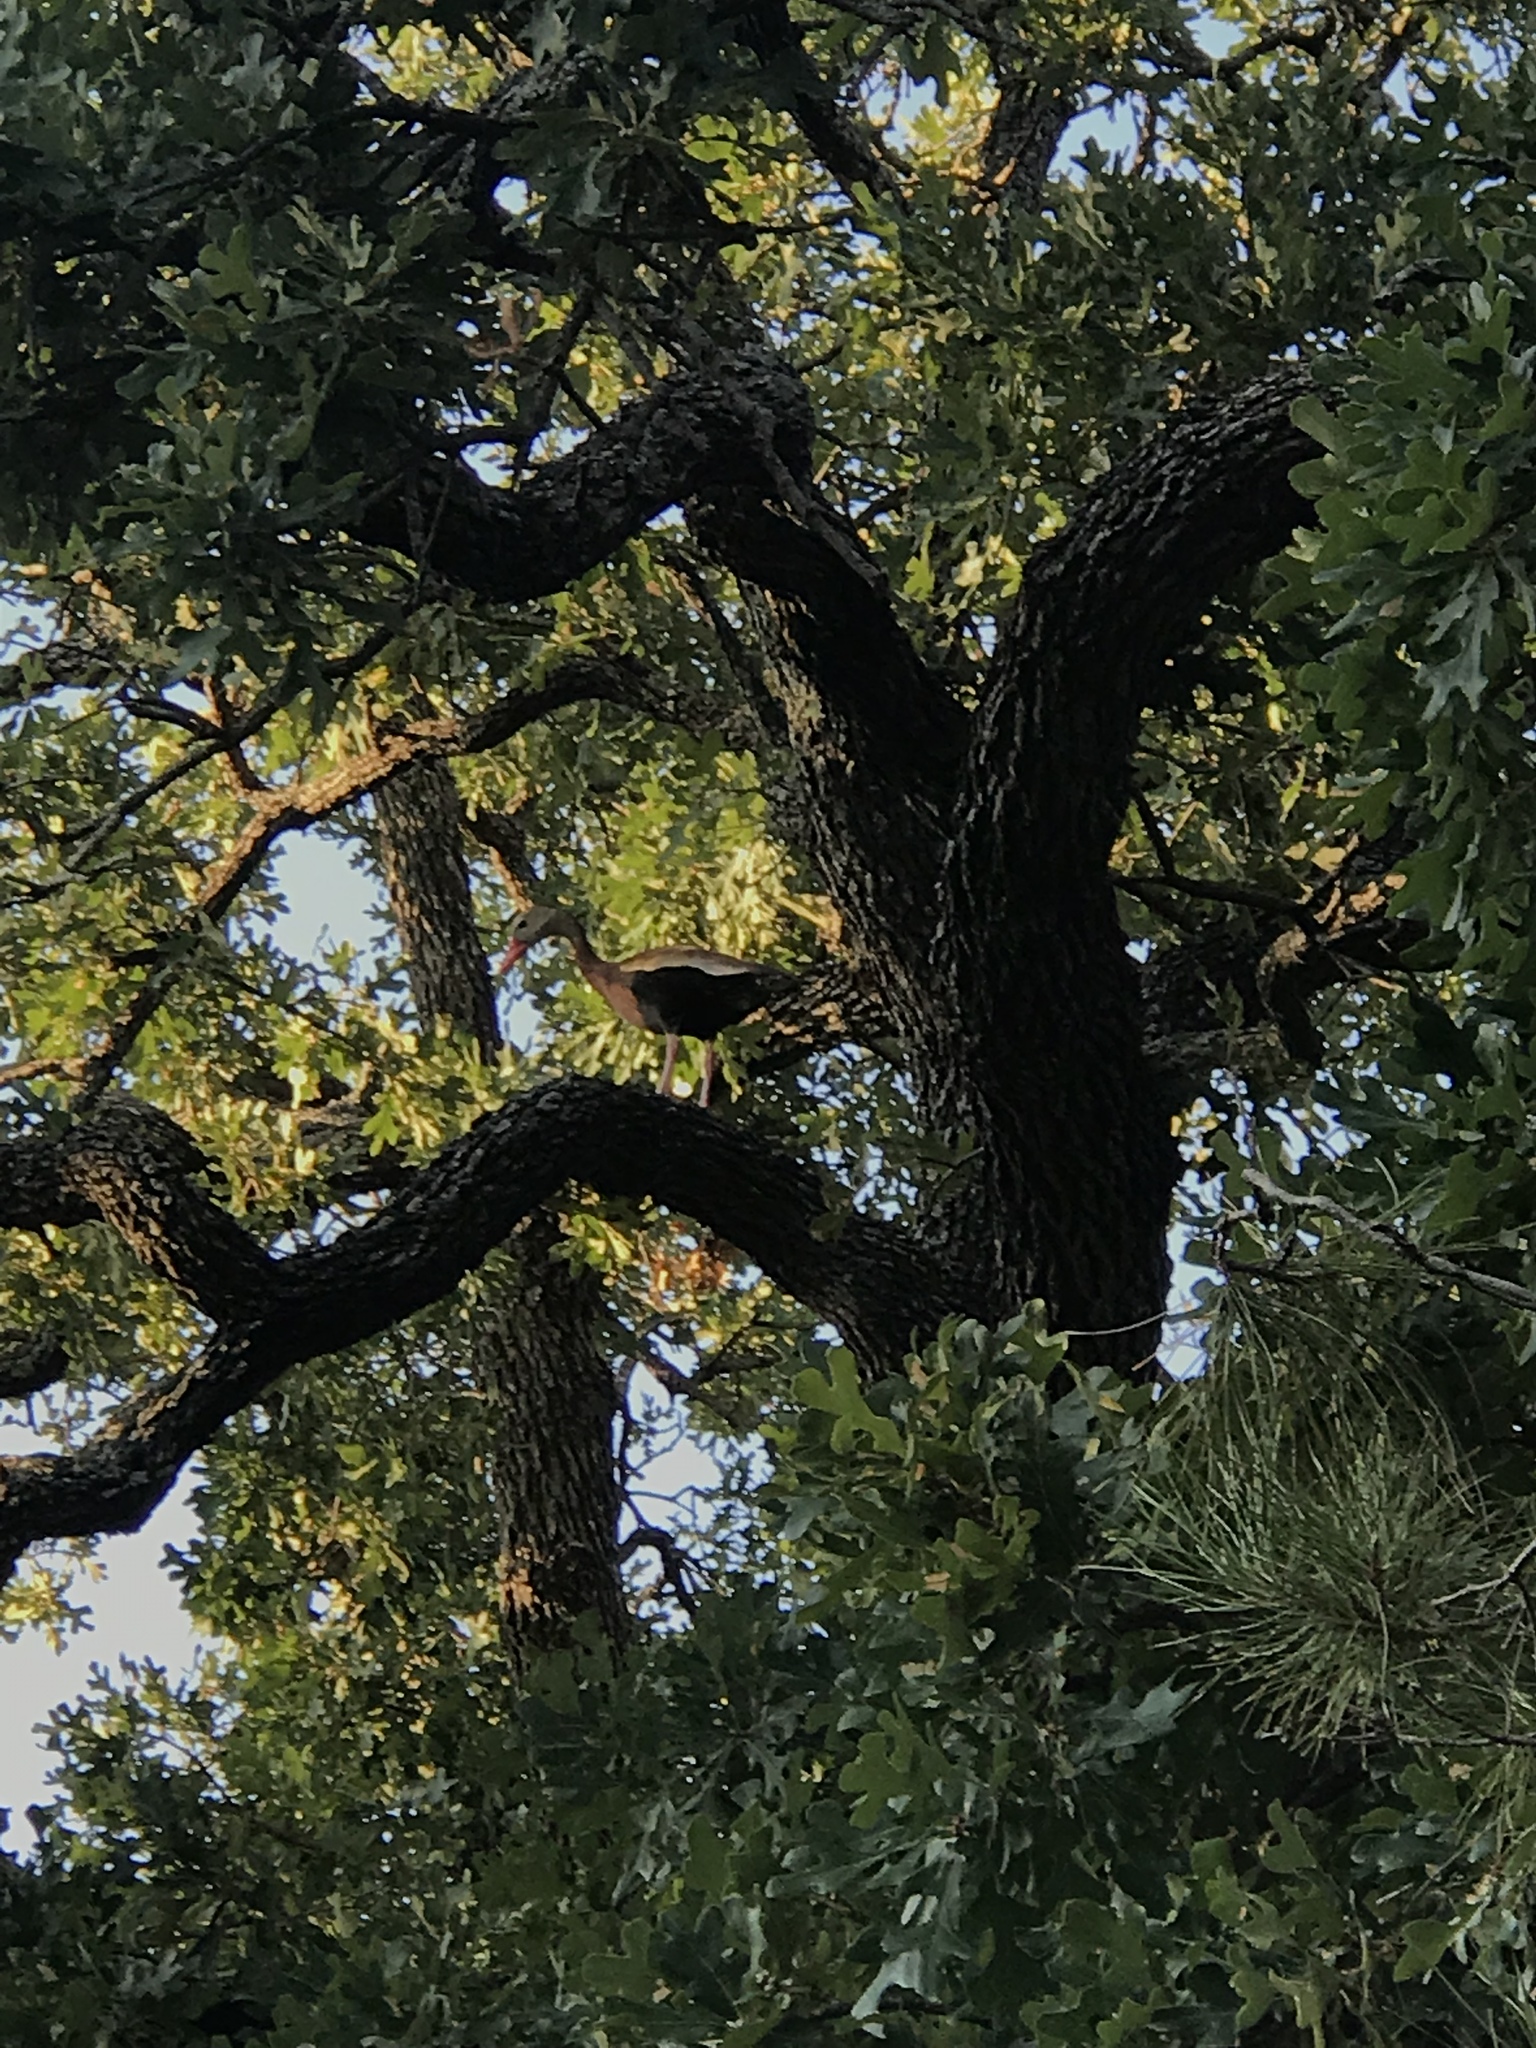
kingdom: Animalia
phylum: Chordata
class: Aves
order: Anseriformes
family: Anatidae
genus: Dendrocygna
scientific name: Dendrocygna autumnalis
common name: Black-bellied whistling duck
